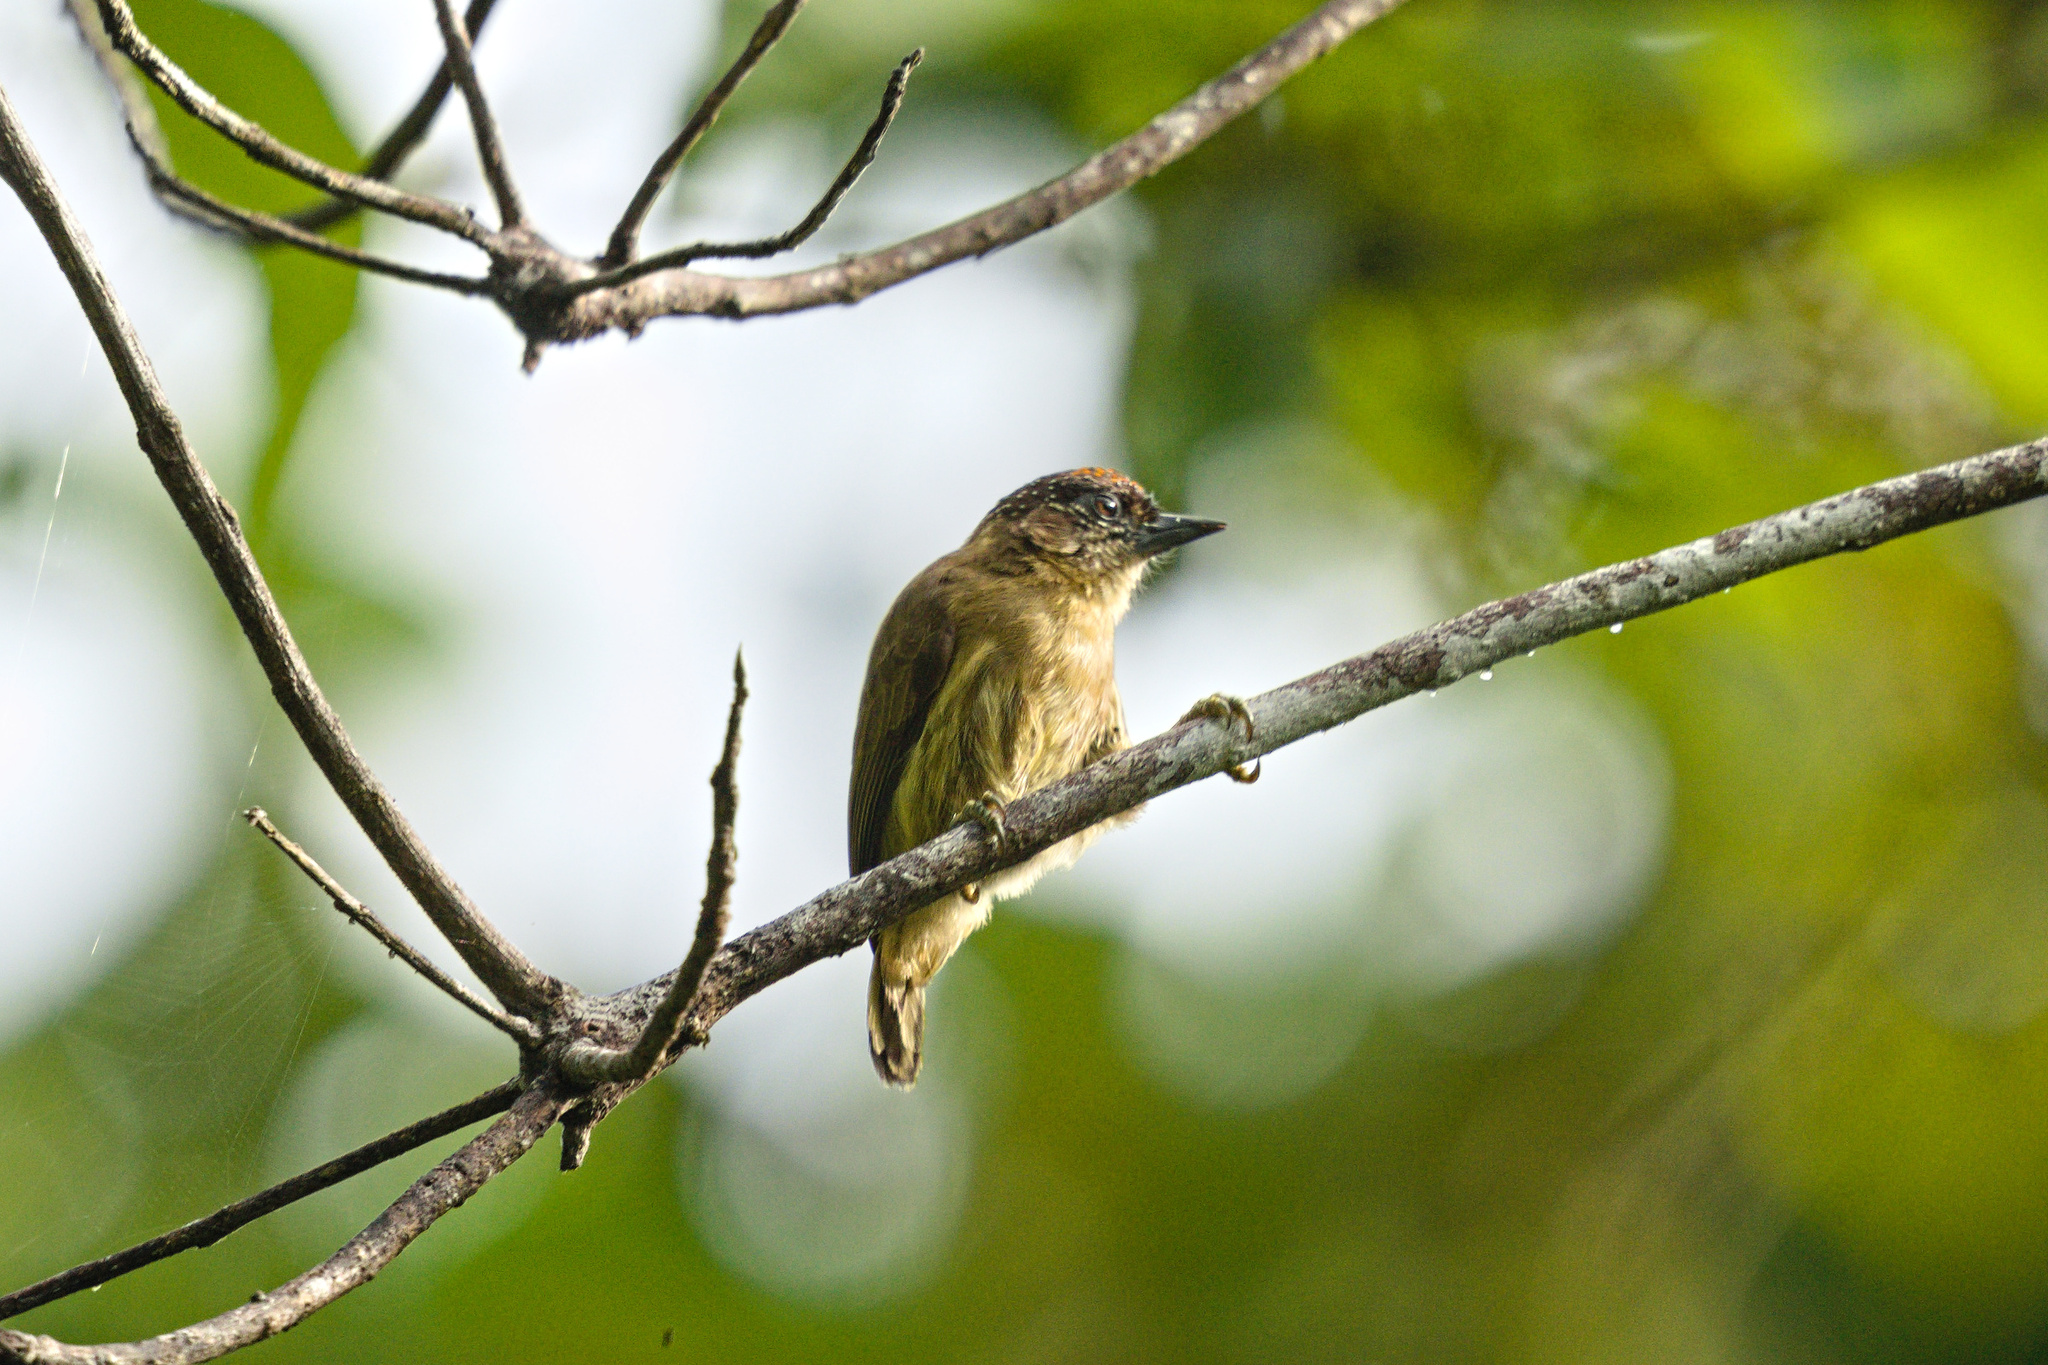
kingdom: Animalia
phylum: Chordata
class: Aves
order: Piciformes
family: Picidae
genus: Picumnus
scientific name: Picumnus olivaceus
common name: Olivaceous piculet
